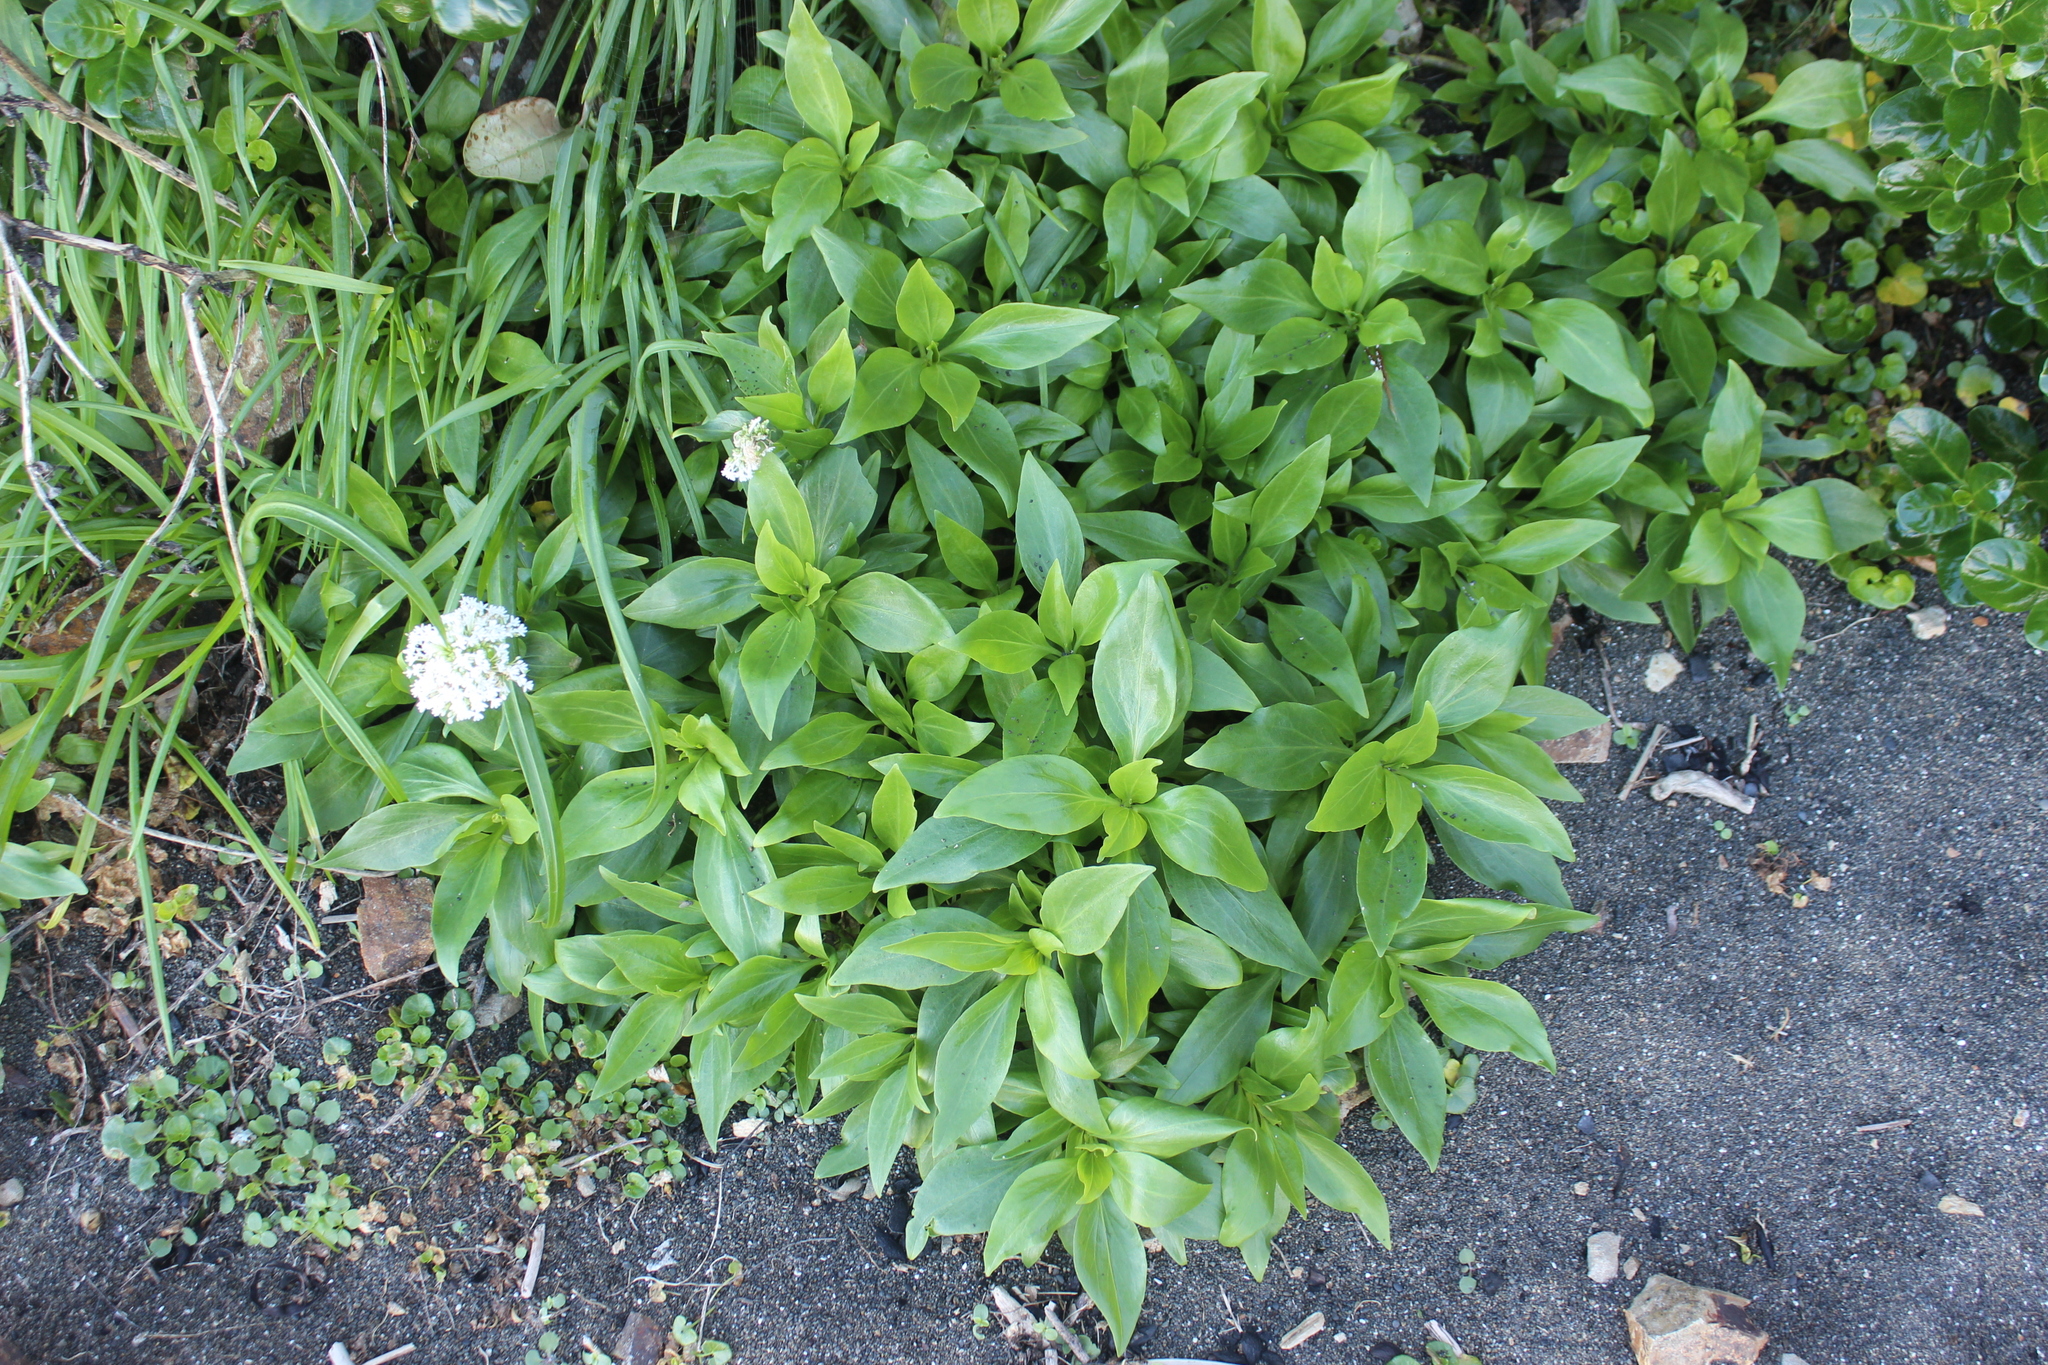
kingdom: Plantae
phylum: Tracheophyta
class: Magnoliopsida
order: Dipsacales
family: Caprifoliaceae
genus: Centranthus
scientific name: Centranthus ruber
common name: Red valerian
